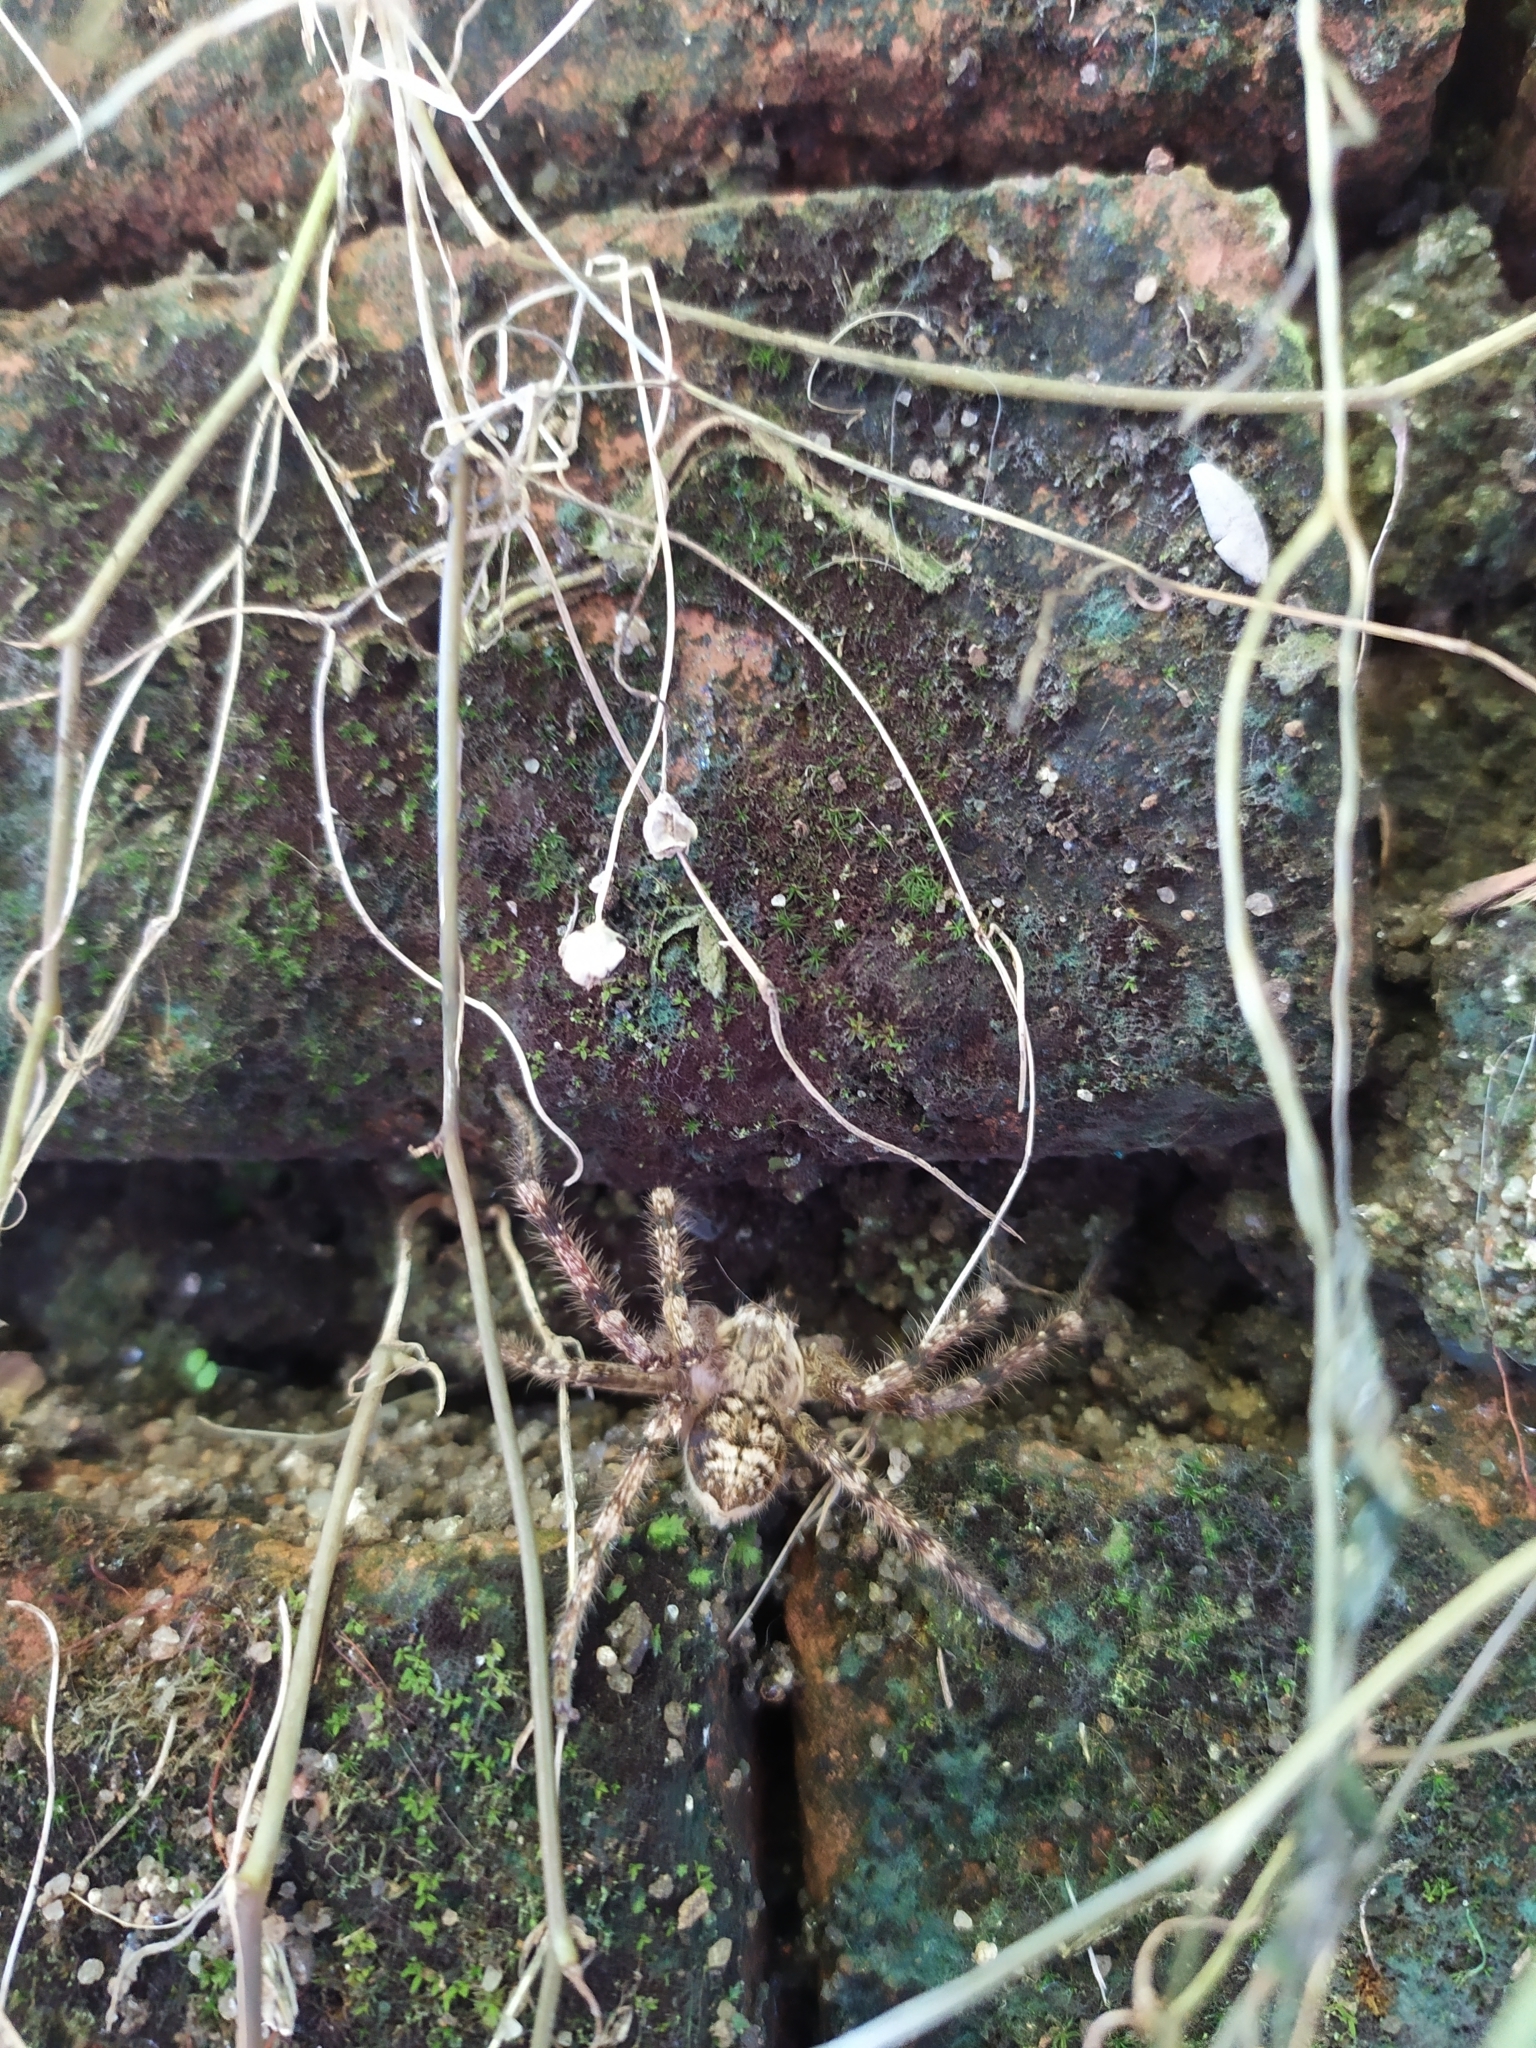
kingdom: Animalia
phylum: Arthropoda
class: Arachnida
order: Araneae
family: Sparassidae
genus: Polybetes
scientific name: Polybetes rapidus
